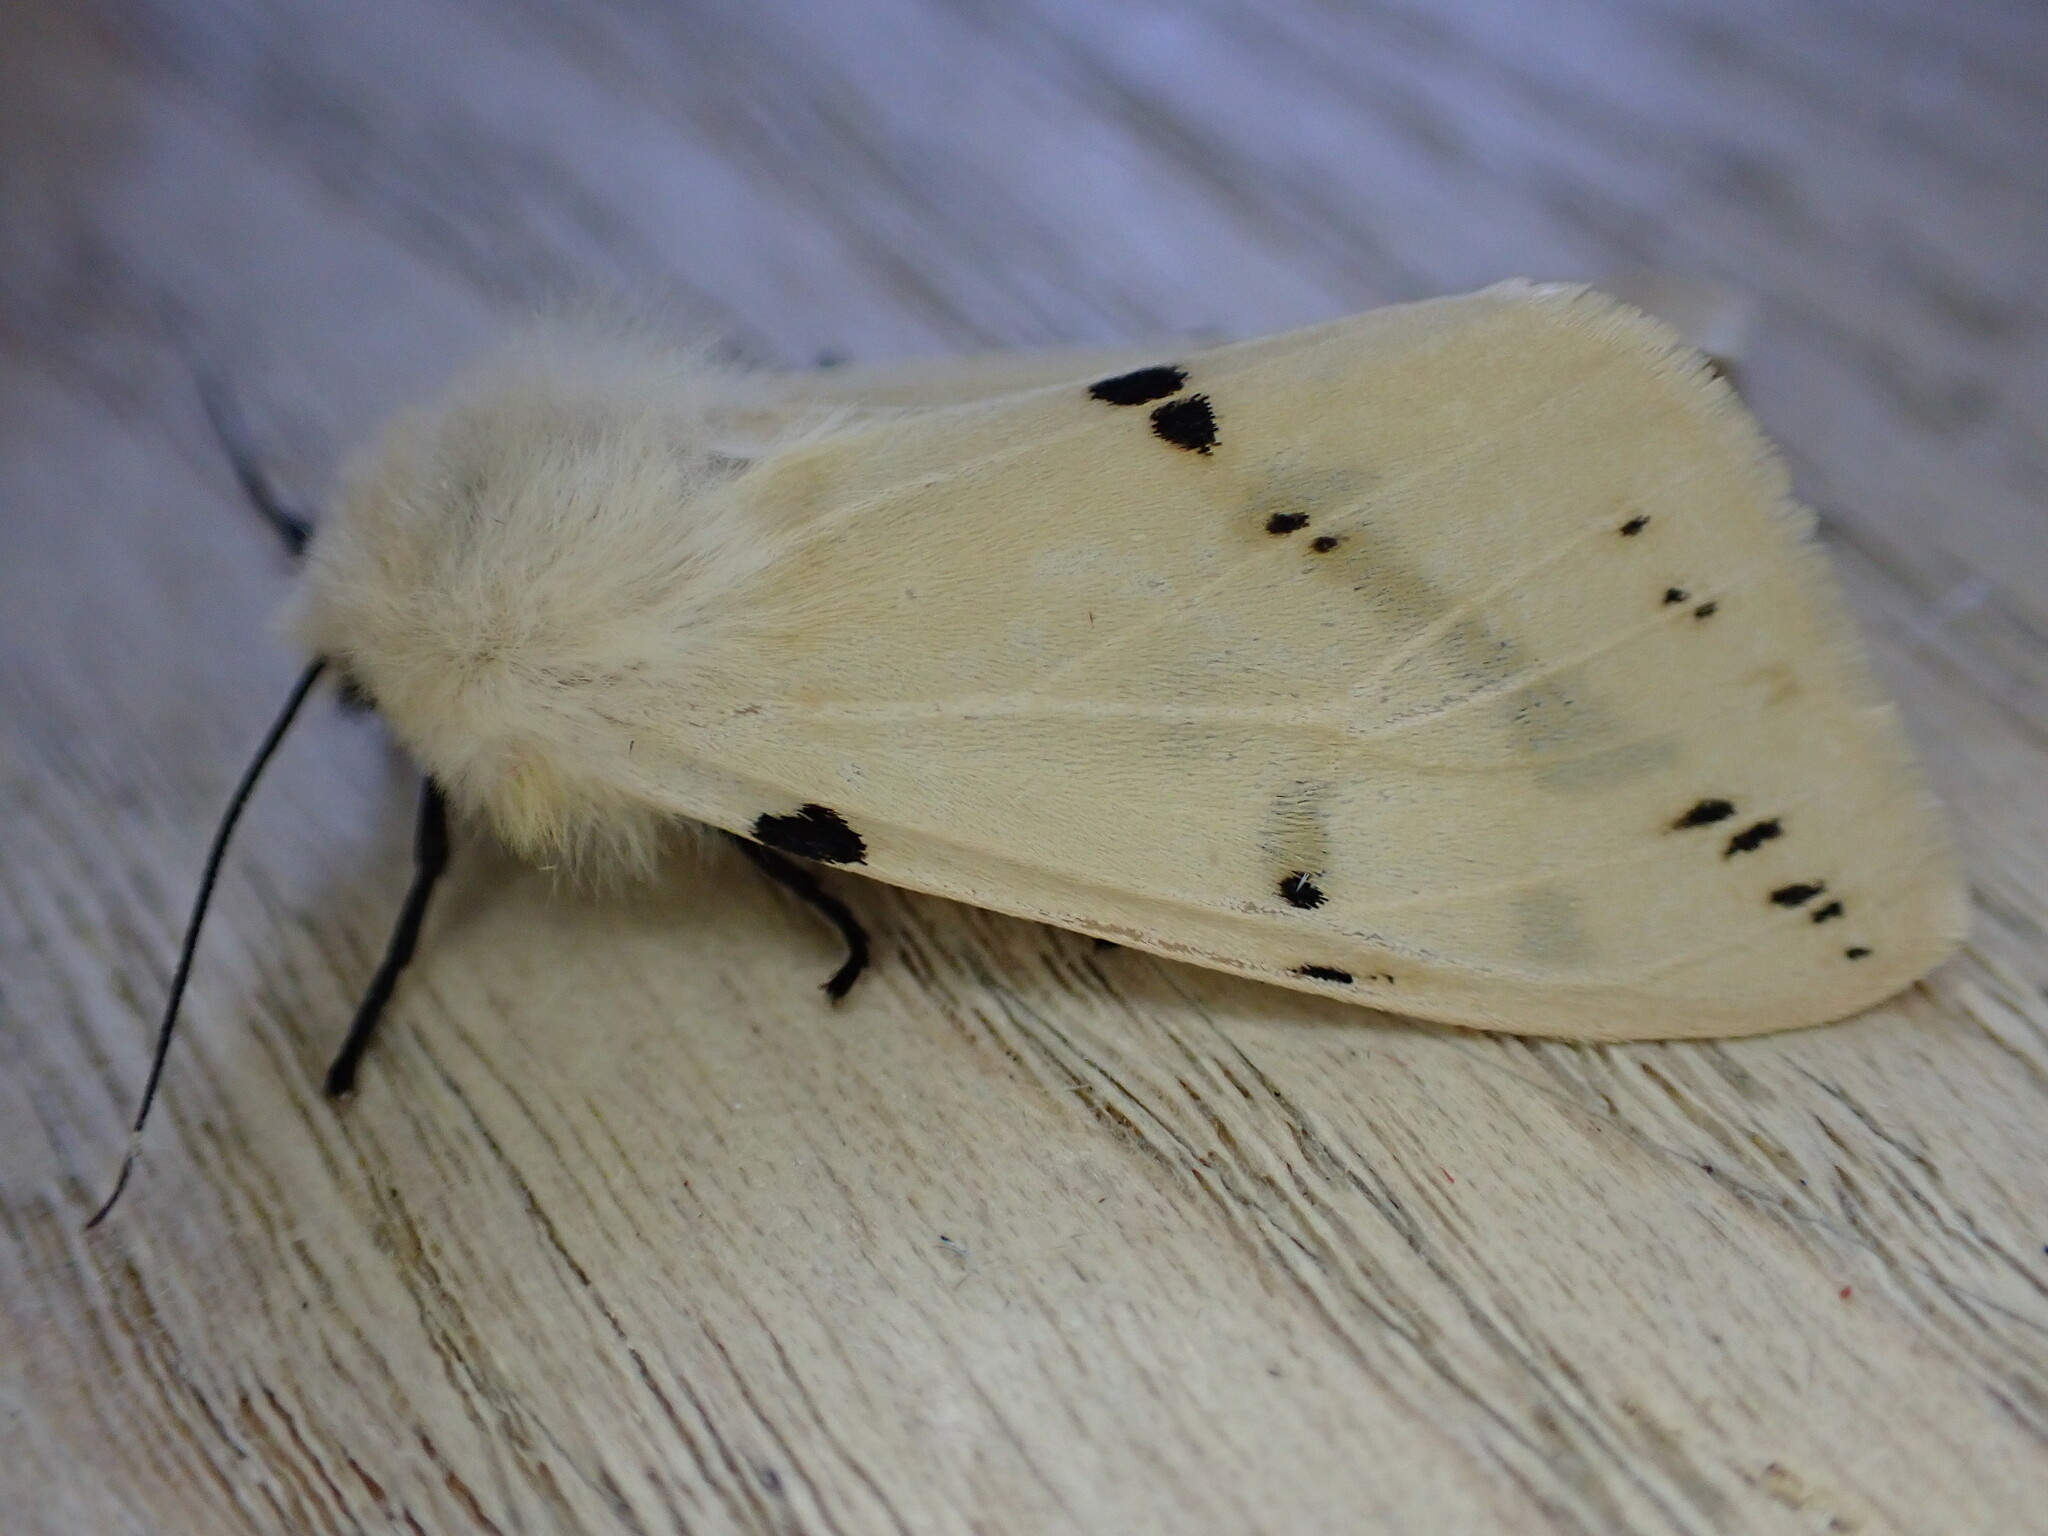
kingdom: Animalia
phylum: Arthropoda
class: Insecta
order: Lepidoptera
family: Erebidae
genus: Spilarctia
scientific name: Spilarctia lutea
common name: Buff ermine
